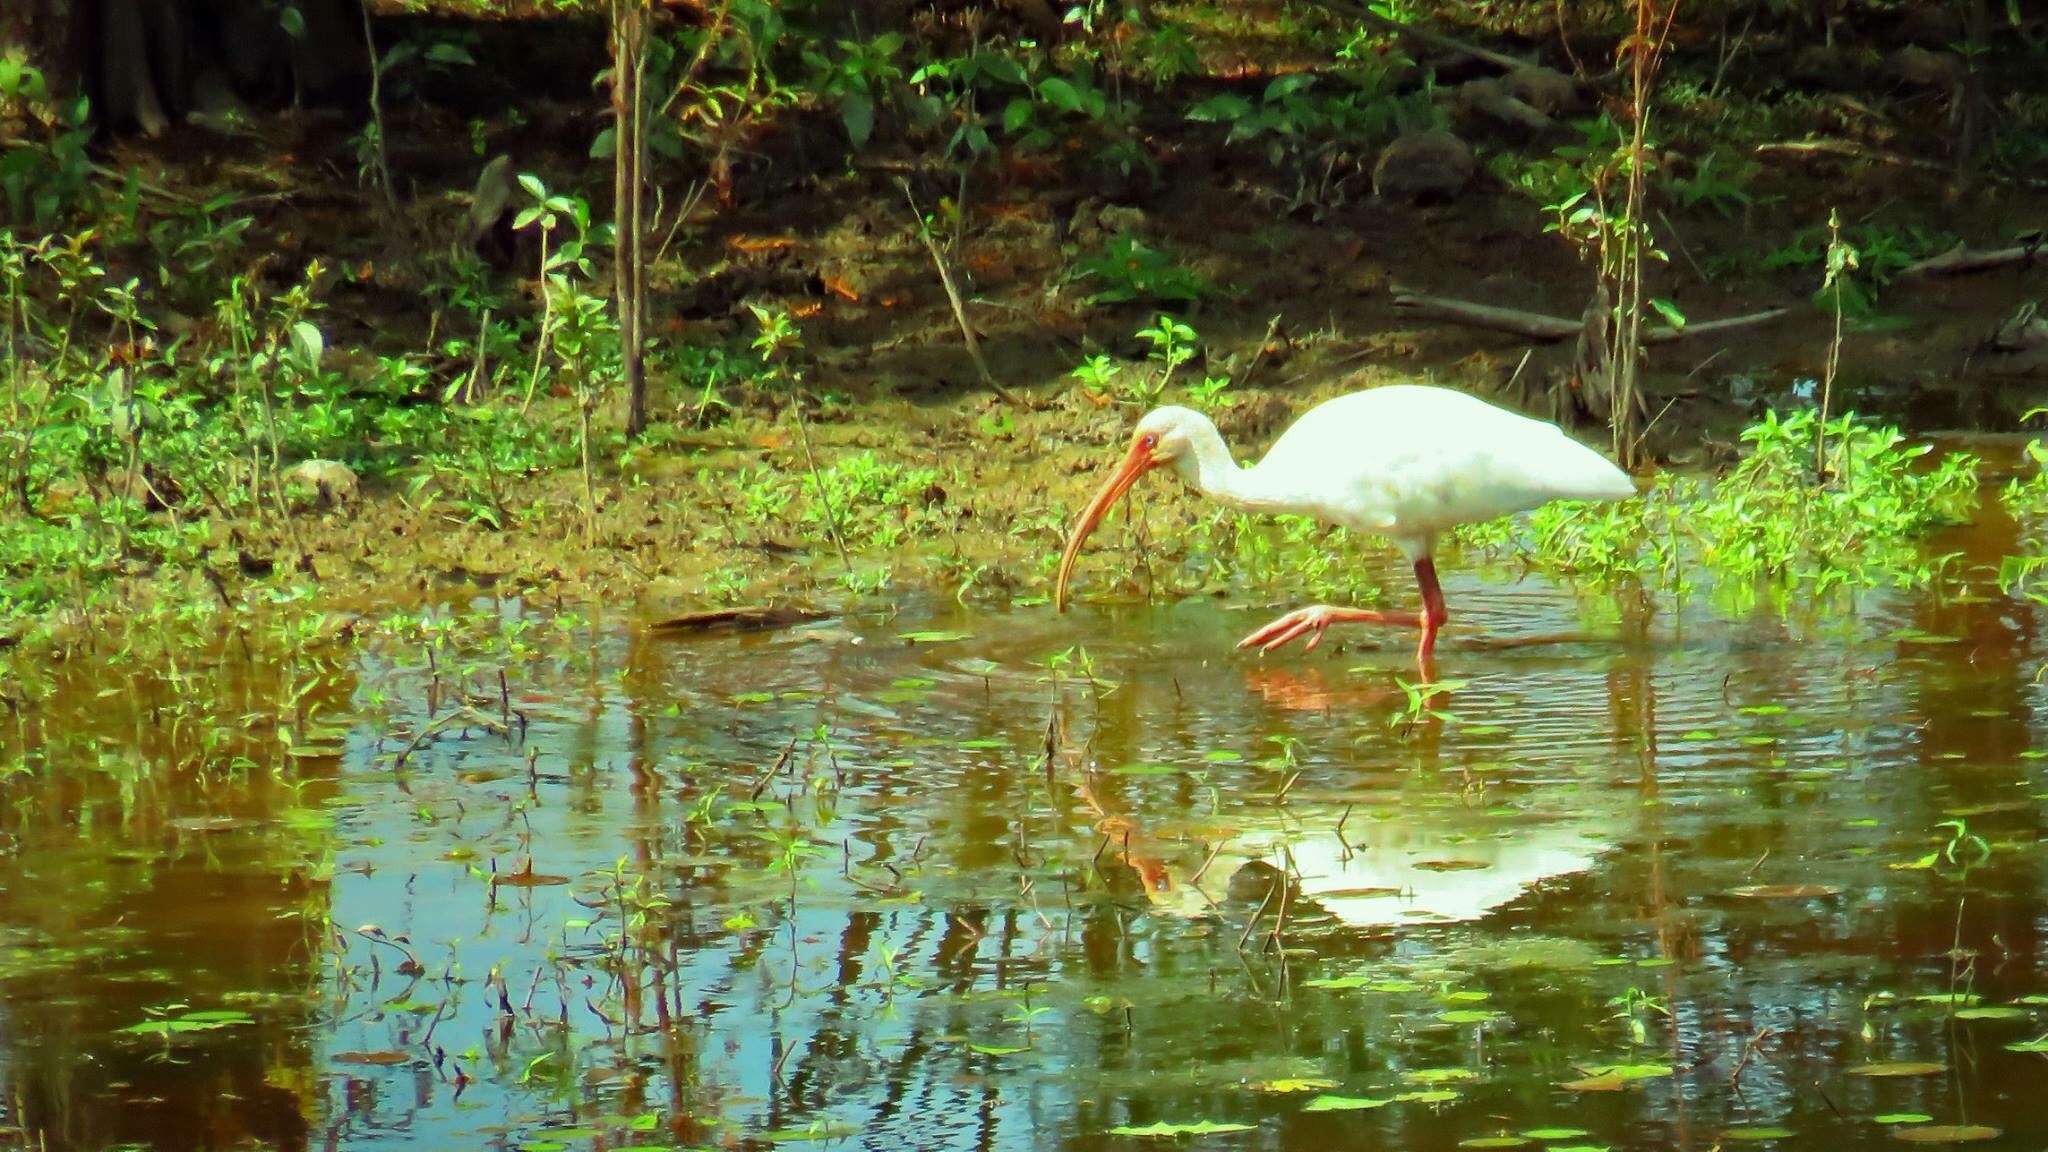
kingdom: Animalia
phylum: Chordata
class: Aves
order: Pelecaniformes
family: Threskiornithidae
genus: Eudocimus
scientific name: Eudocimus albus
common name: White ibis
